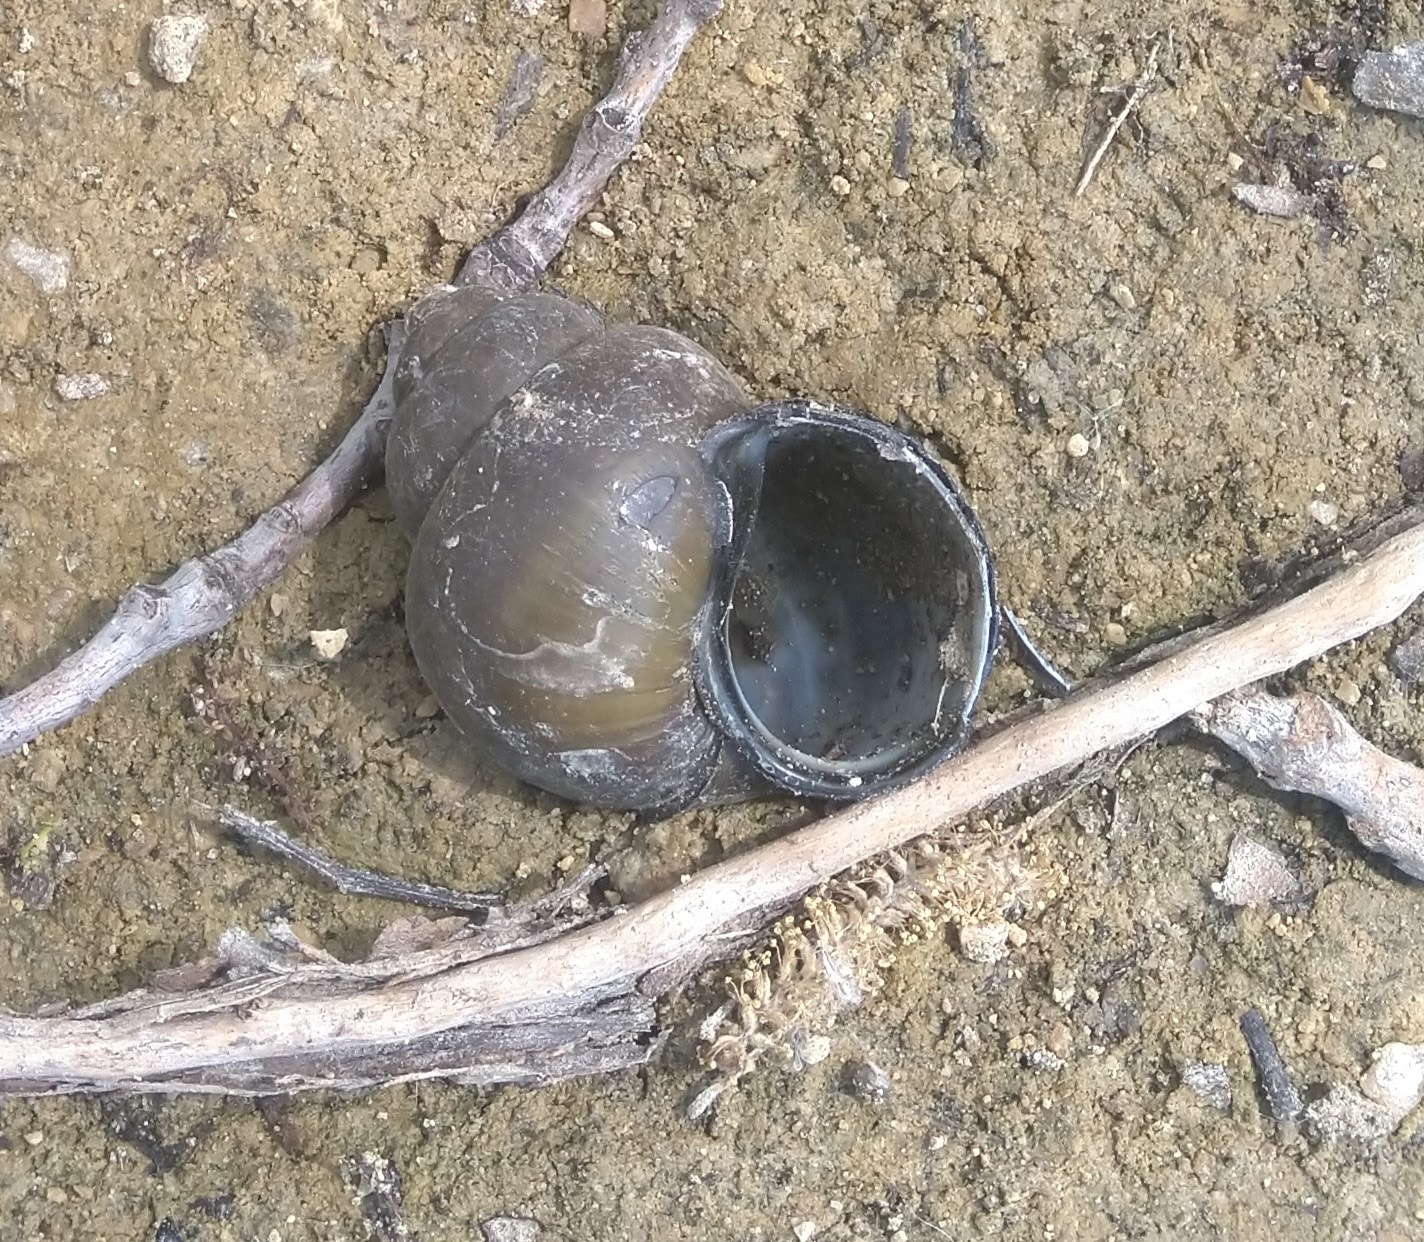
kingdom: Animalia
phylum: Mollusca
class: Gastropoda
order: Architaenioglossa
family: Viviparidae
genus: Cipangopaludina
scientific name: Cipangopaludina chinensis
